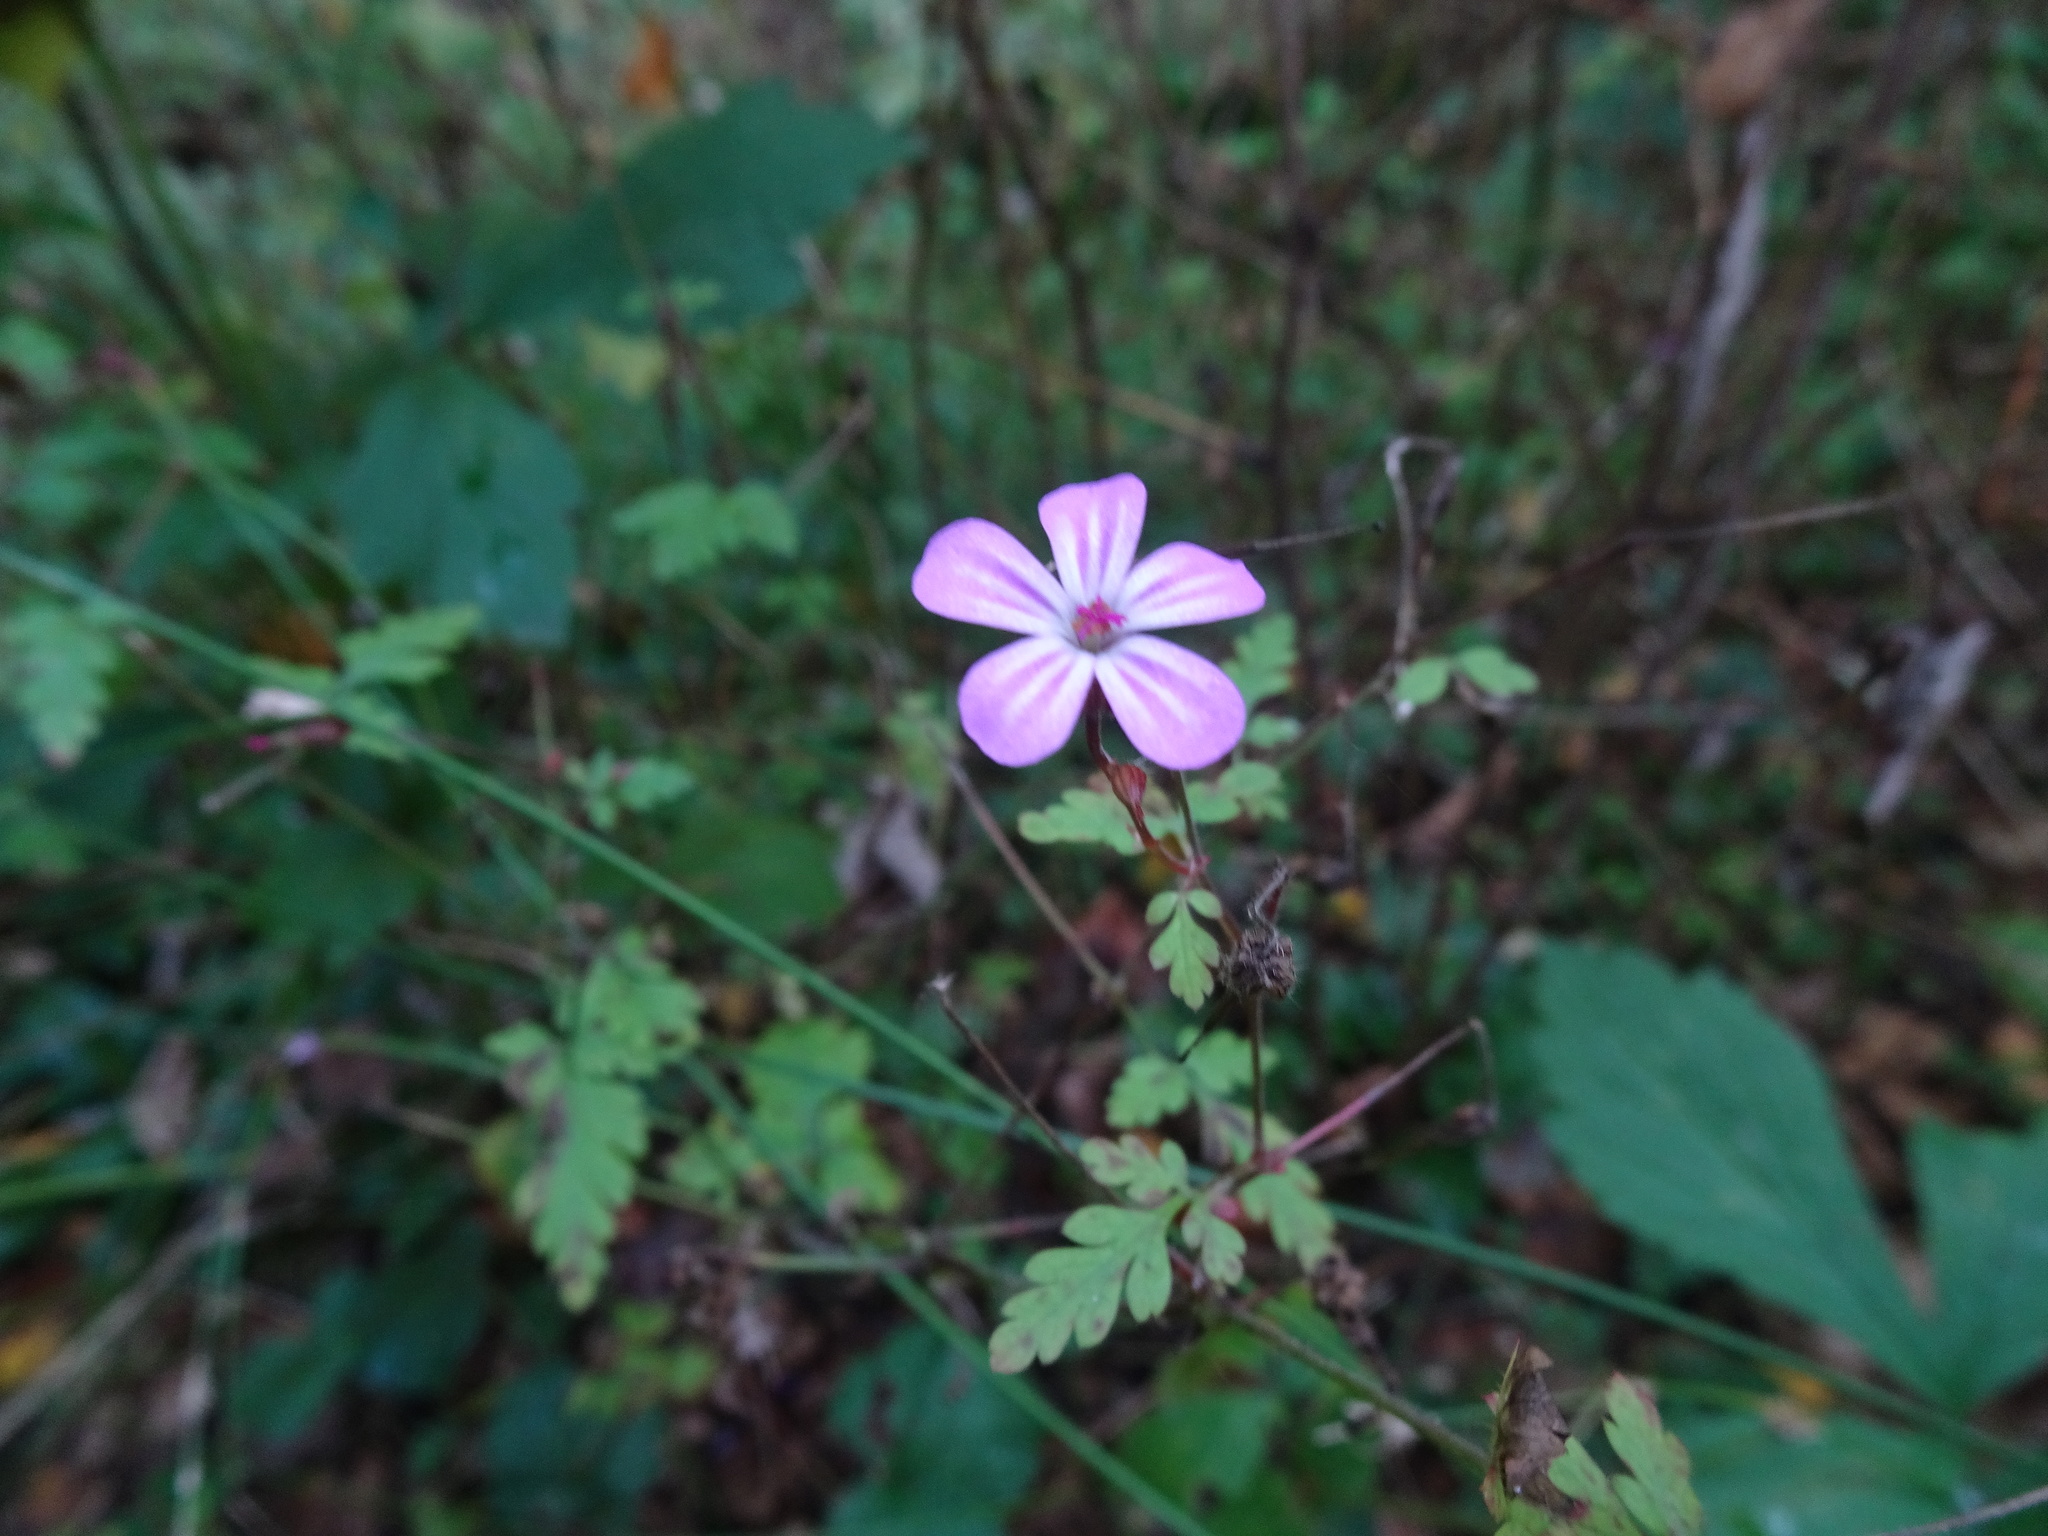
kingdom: Plantae
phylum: Tracheophyta
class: Magnoliopsida
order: Geraniales
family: Geraniaceae
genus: Geranium
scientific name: Geranium robertianum
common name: Herb-robert
